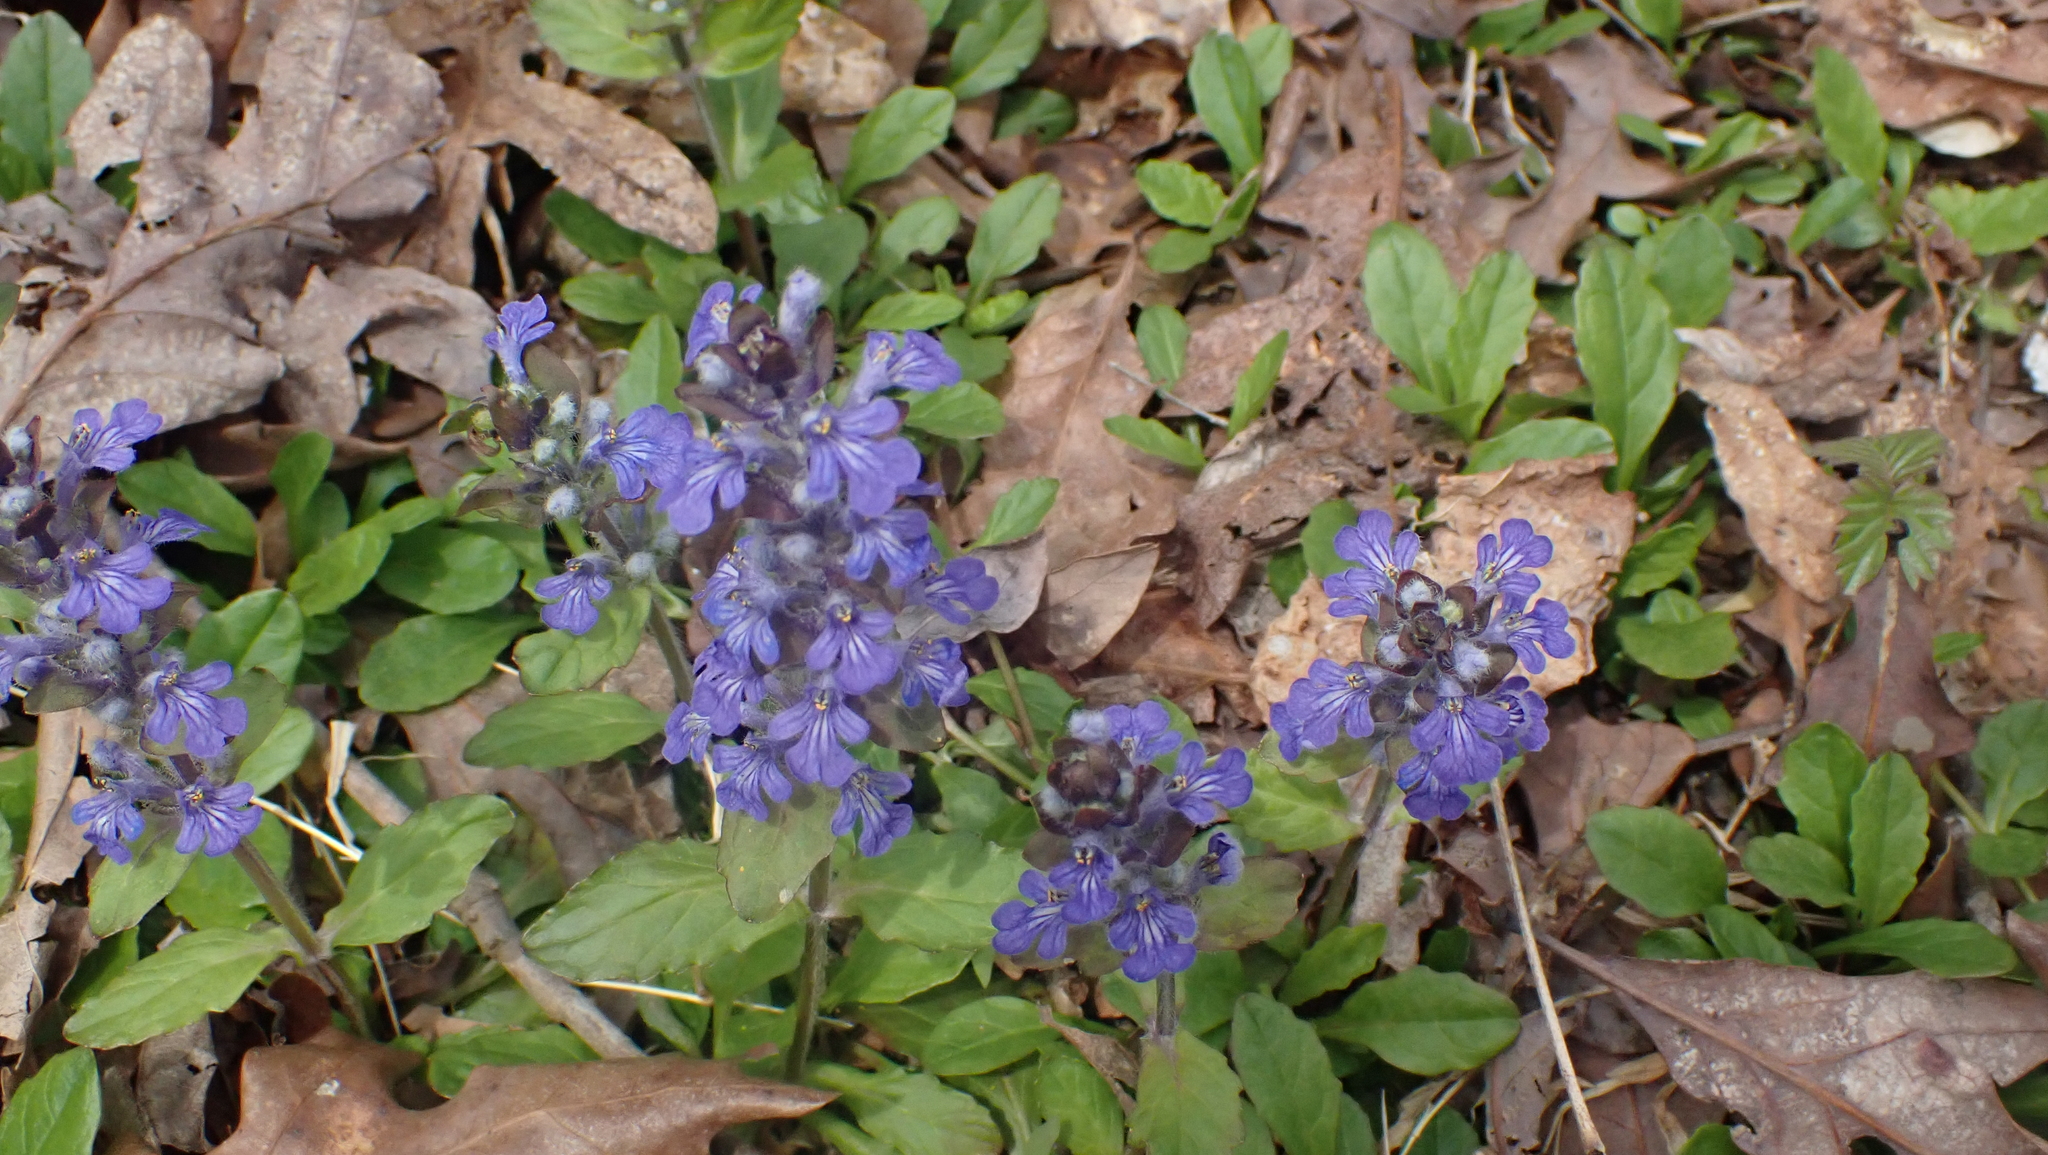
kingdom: Plantae
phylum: Tracheophyta
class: Magnoliopsida
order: Lamiales
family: Lamiaceae
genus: Ajuga
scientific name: Ajuga reptans
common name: Bugle
